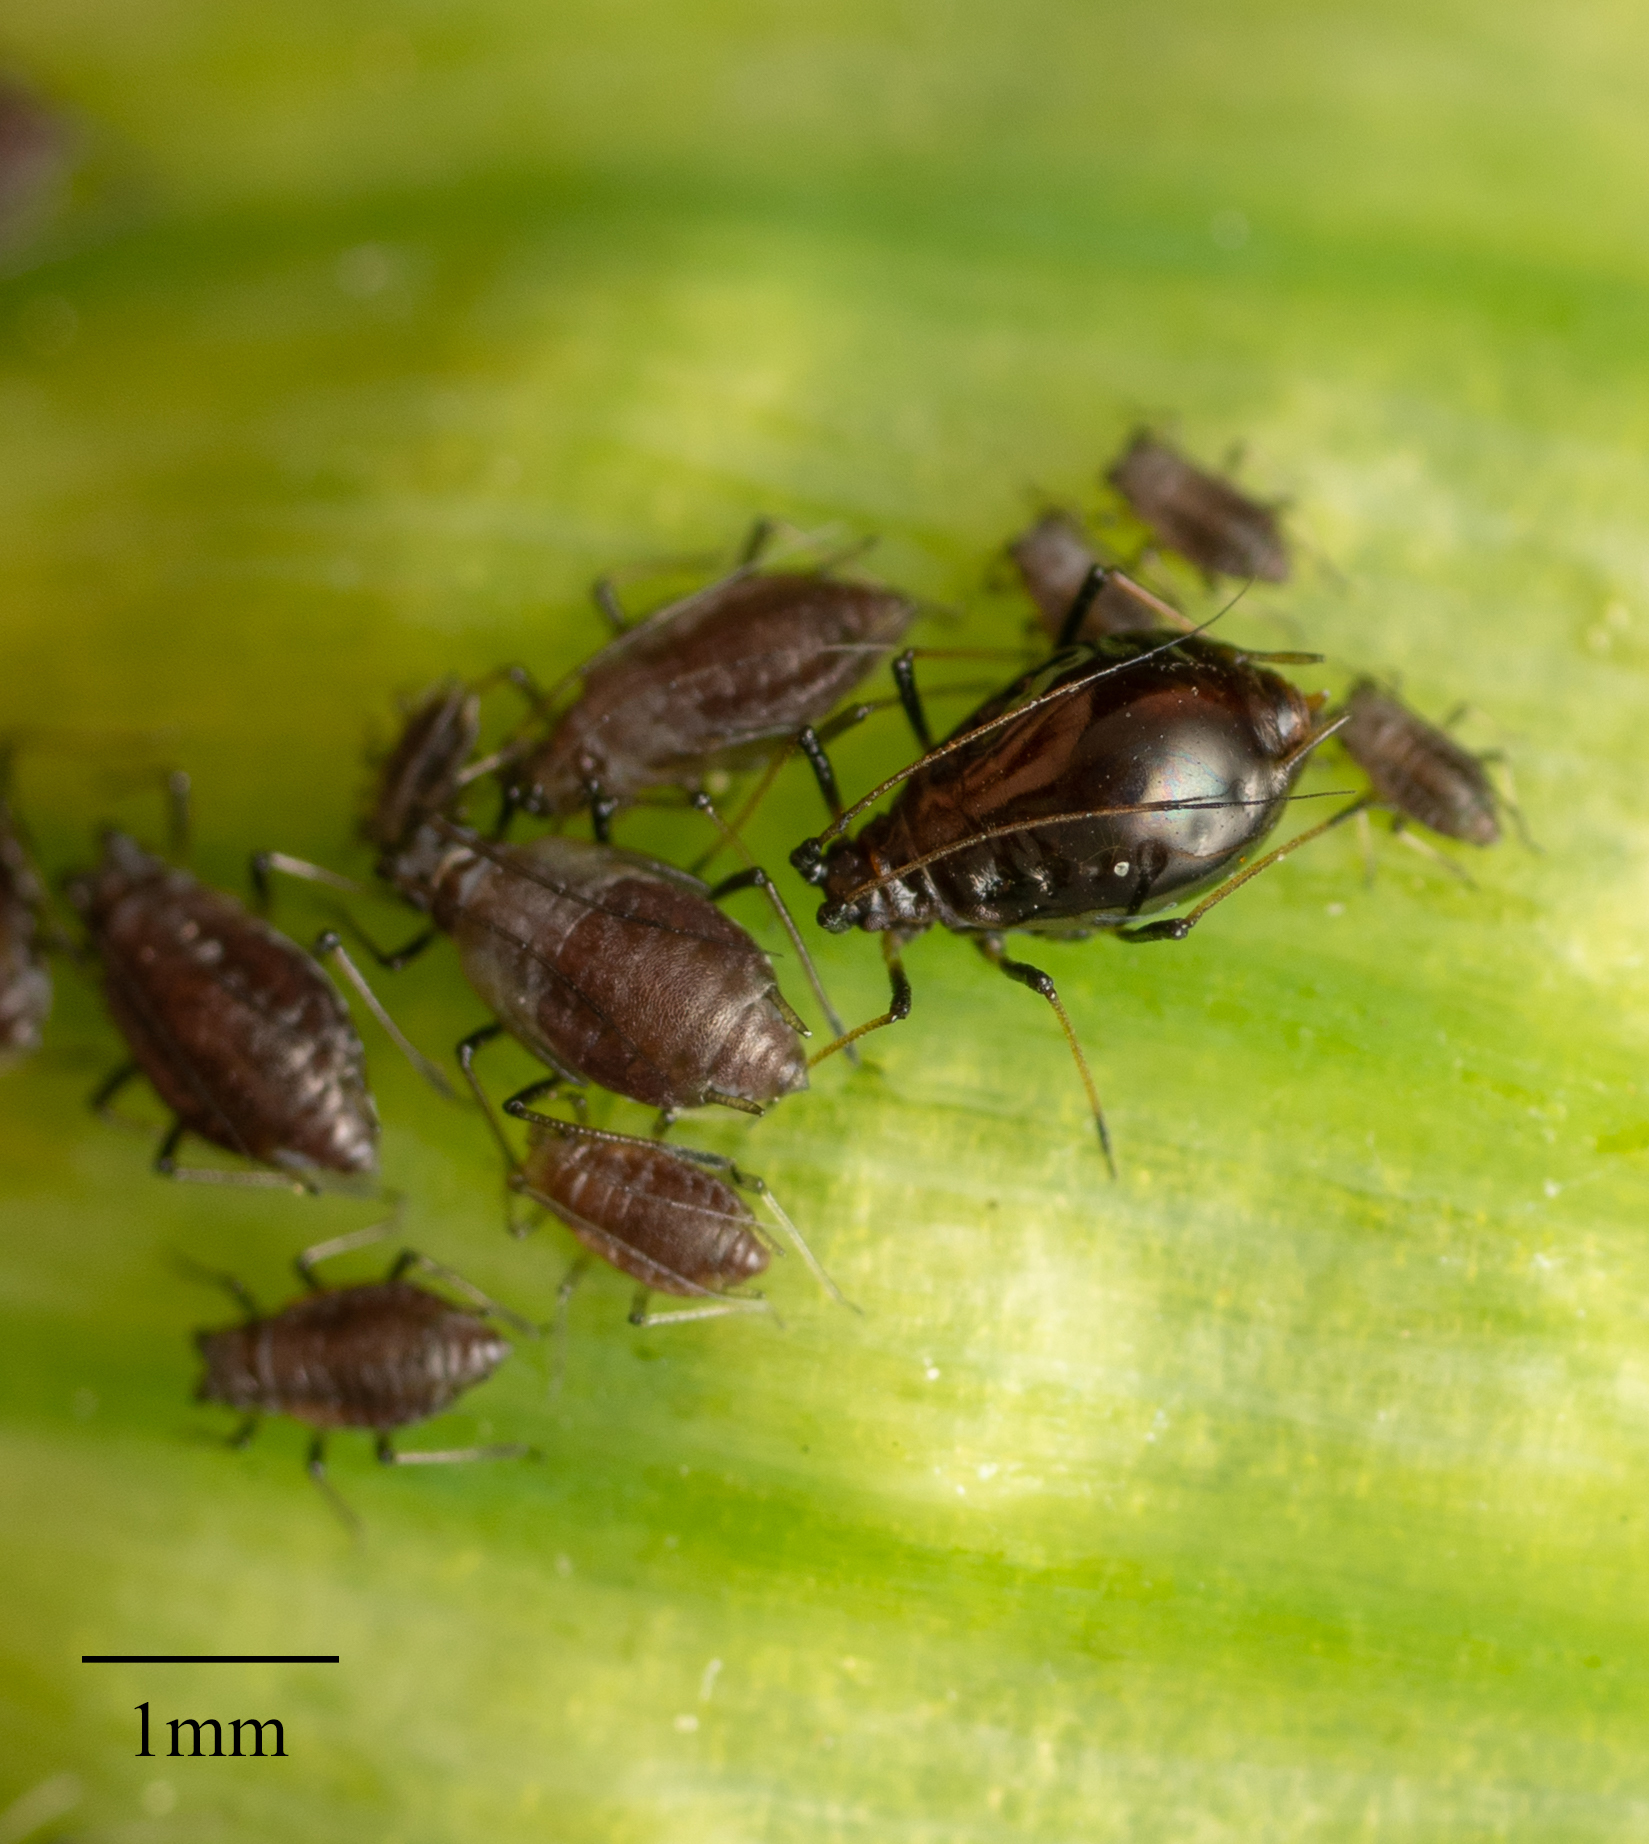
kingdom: Animalia
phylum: Arthropoda
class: Insecta
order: Hemiptera
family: Aphididae
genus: Neotoxoptera
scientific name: Neotoxoptera formosana
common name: Onion aphid
